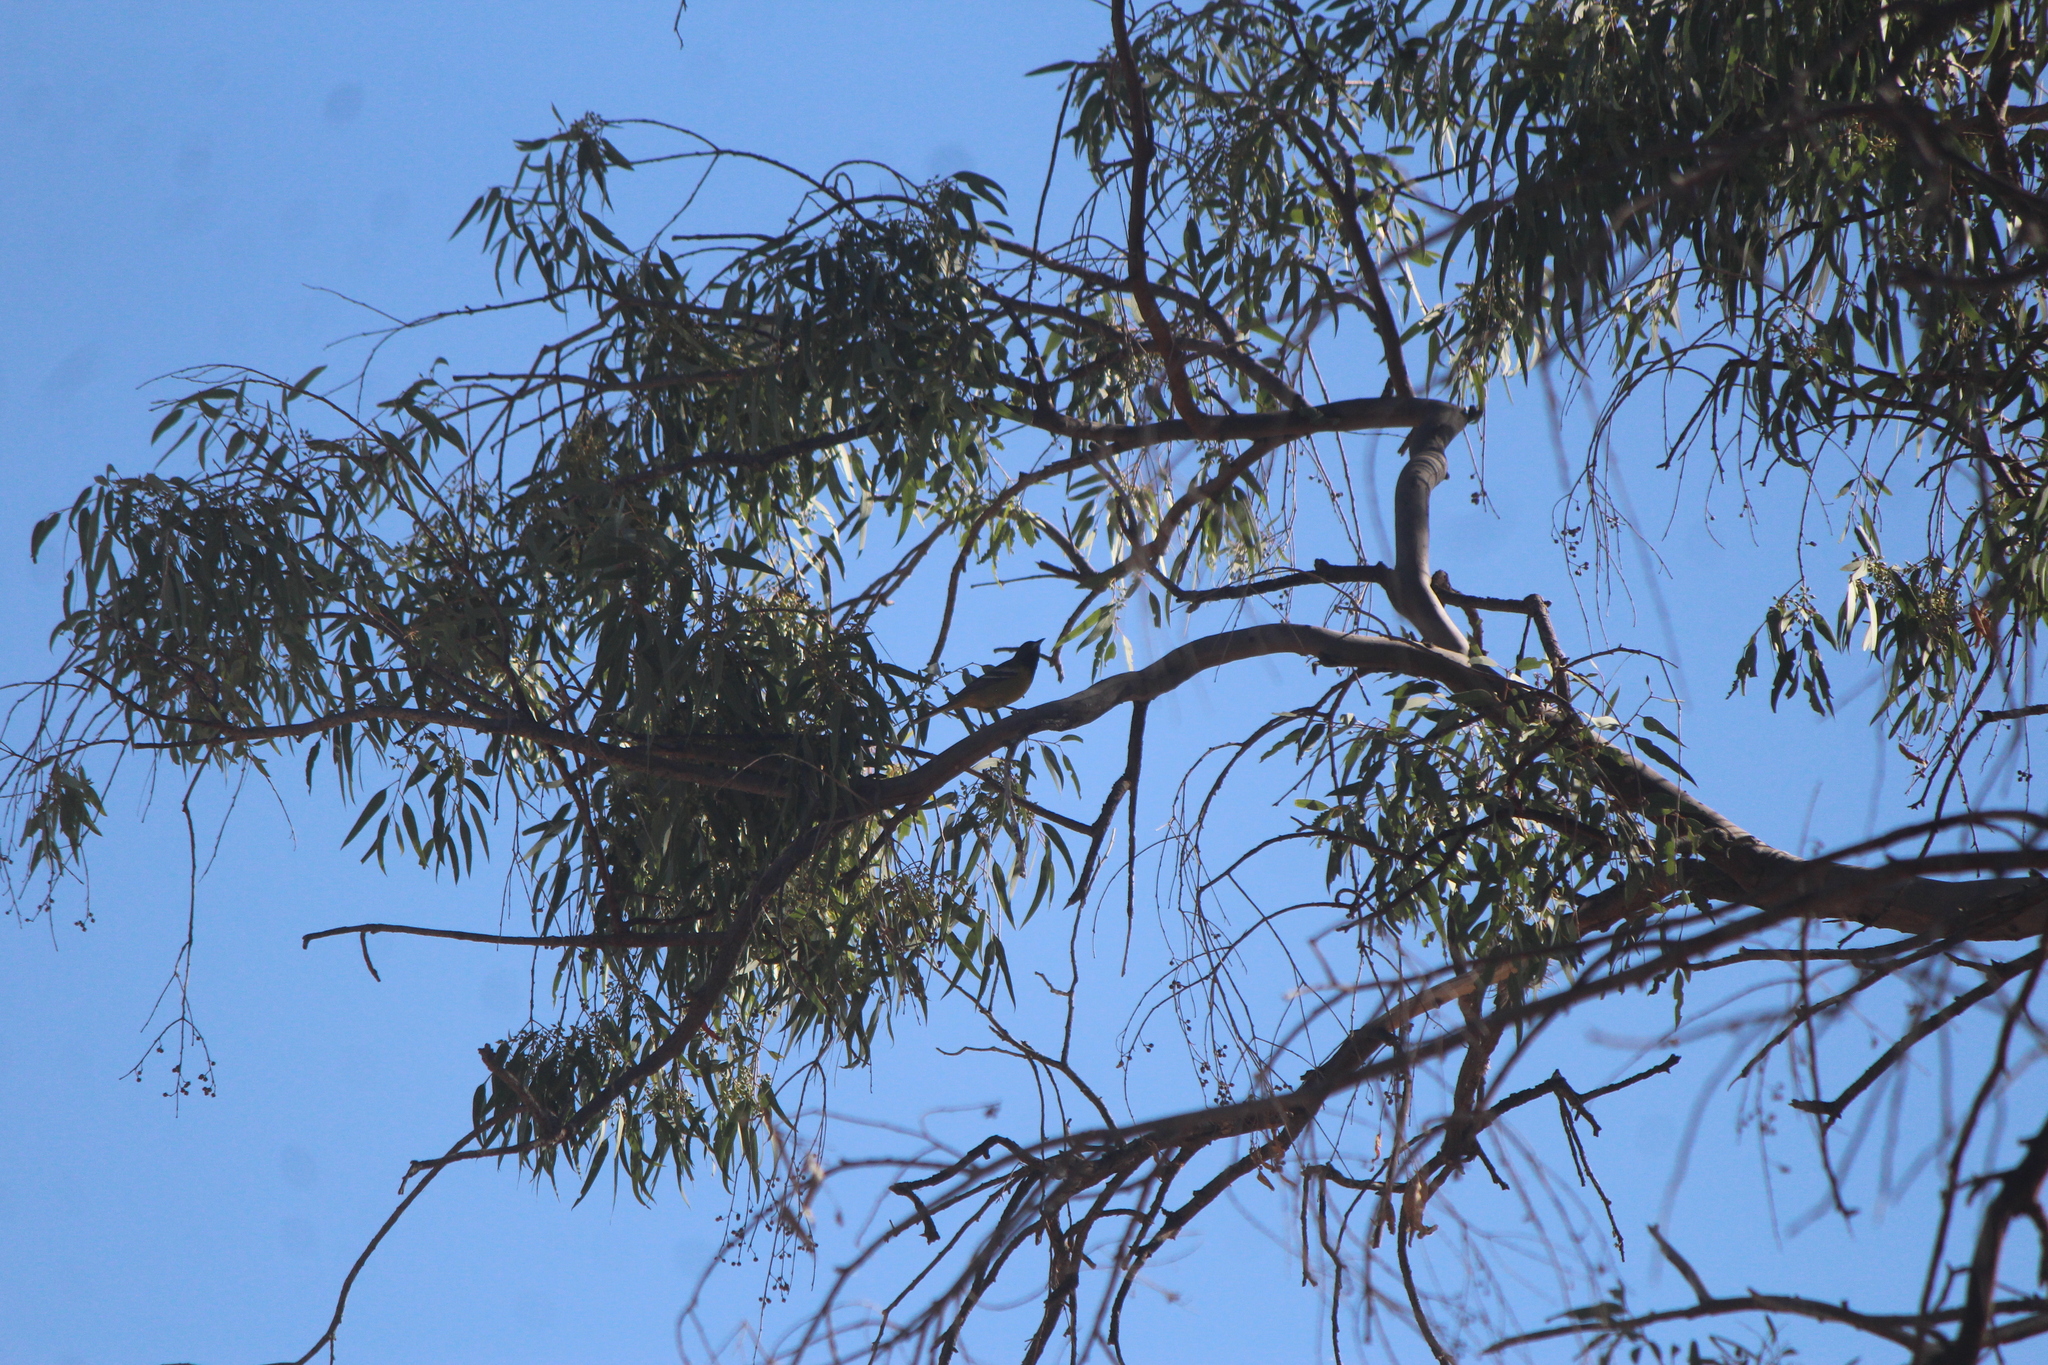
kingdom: Animalia
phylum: Chordata
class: Aves
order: Passeriformes
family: Icteridae
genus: Icterus
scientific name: Icterus parisorum
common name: Scott's oriole
